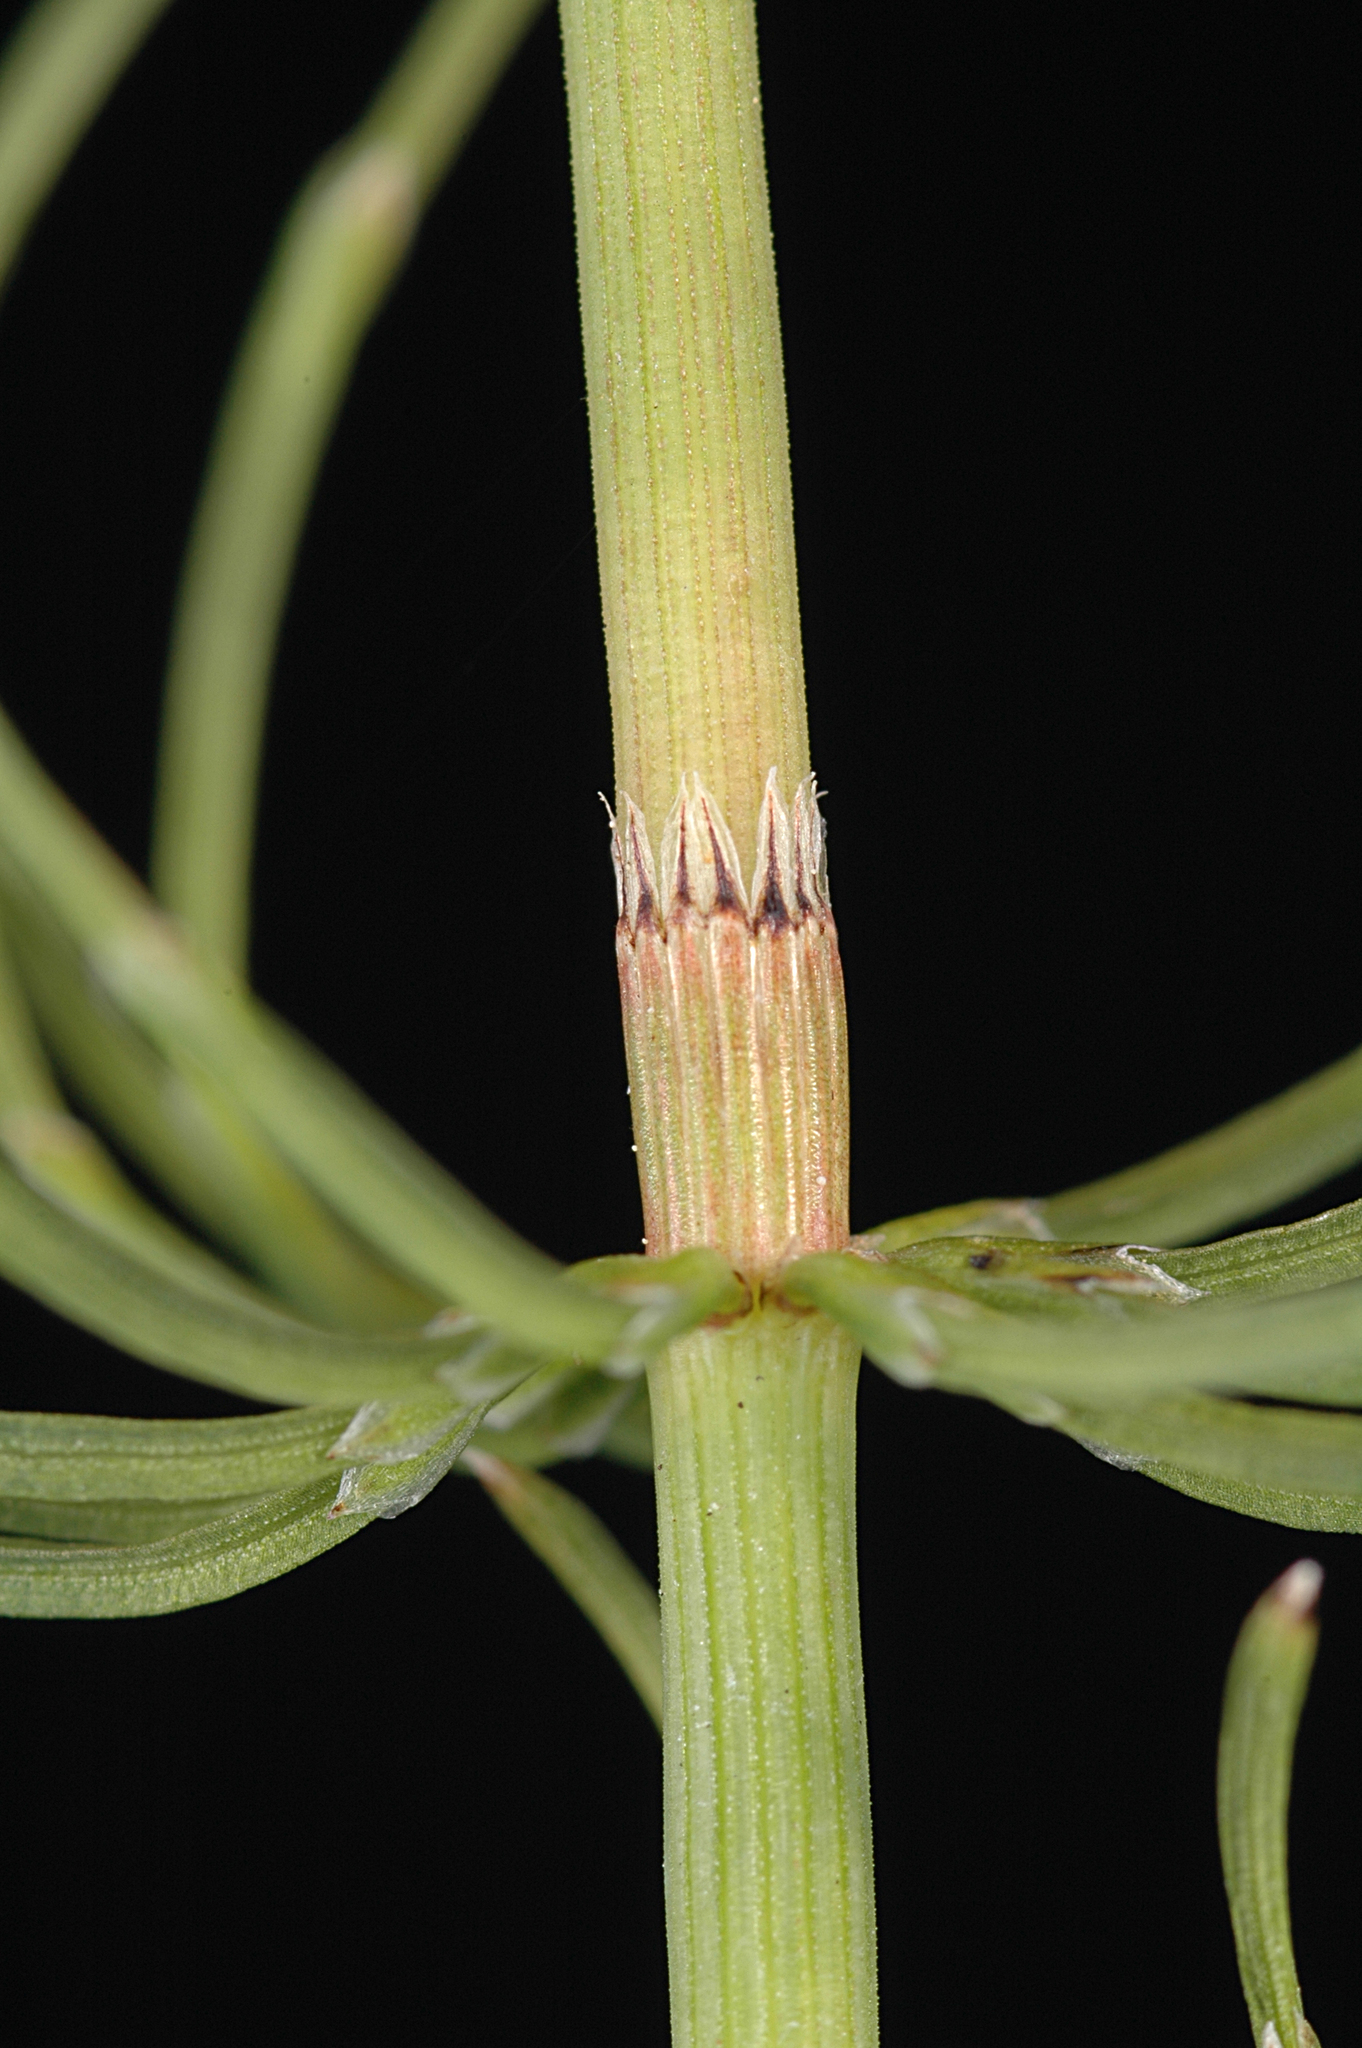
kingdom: Plantae
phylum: Tracheophyta
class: Polypodiopsida
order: Equisetales
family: Equisetaceae
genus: Equisetum
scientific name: Equisetum pratense
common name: Meadow horsetail
